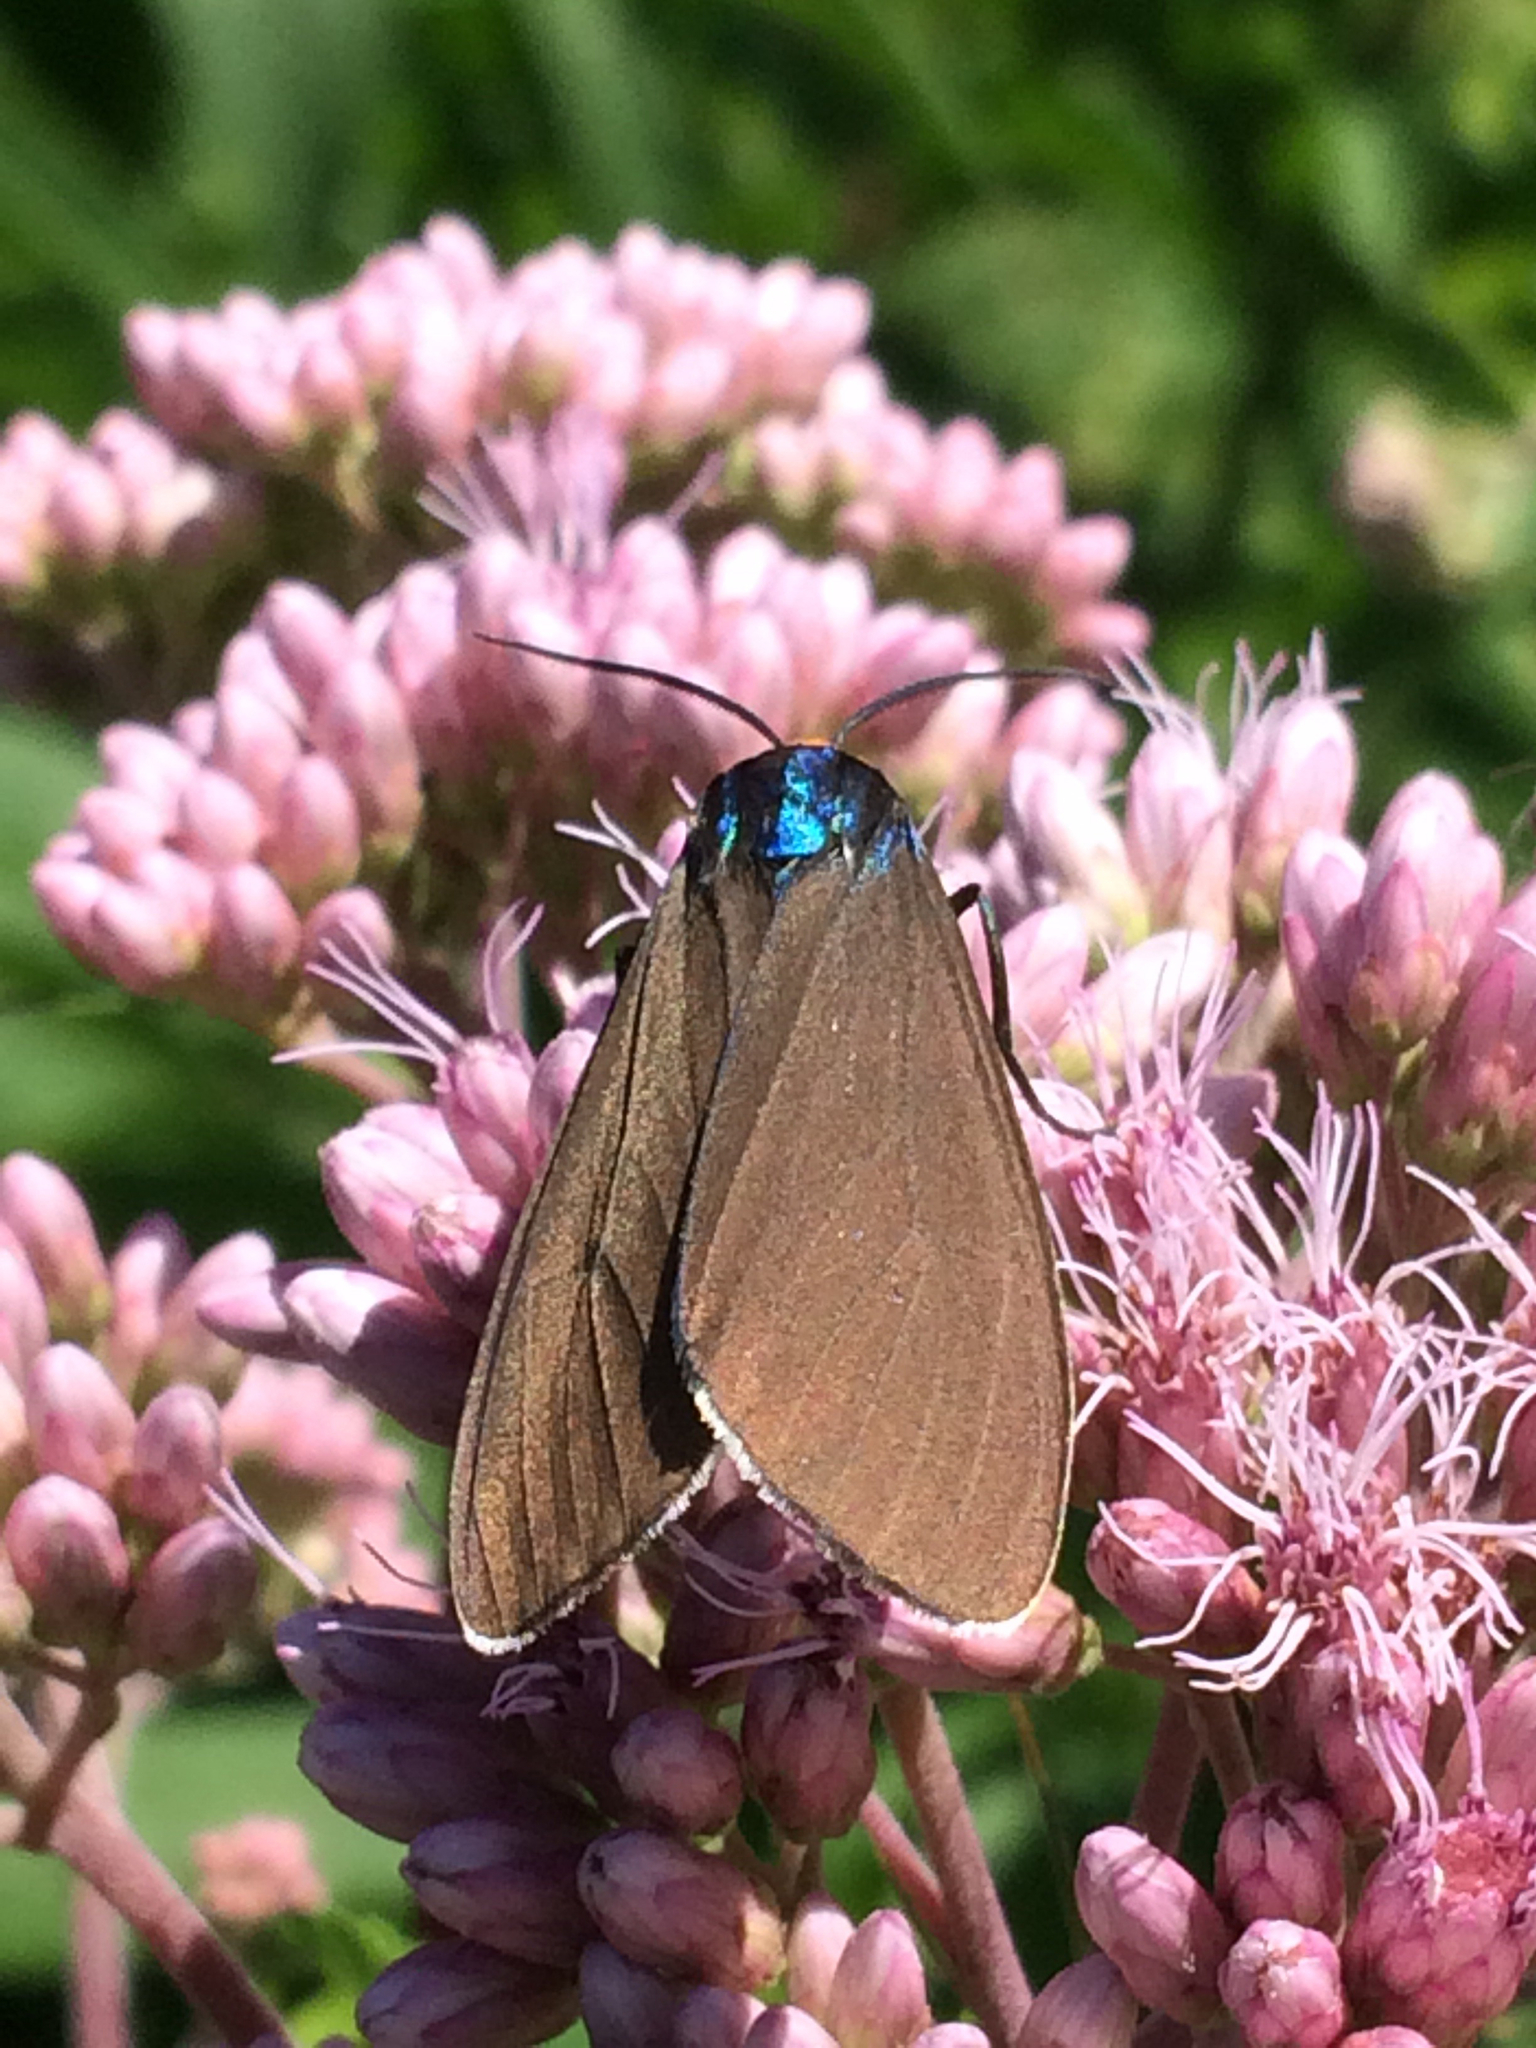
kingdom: Animalia
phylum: Arthropoda
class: Insecta
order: Lepidoptera
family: Erebidae
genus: Ctenucha
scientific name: Ctenucha virginica
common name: Virginia ctenucha moth
